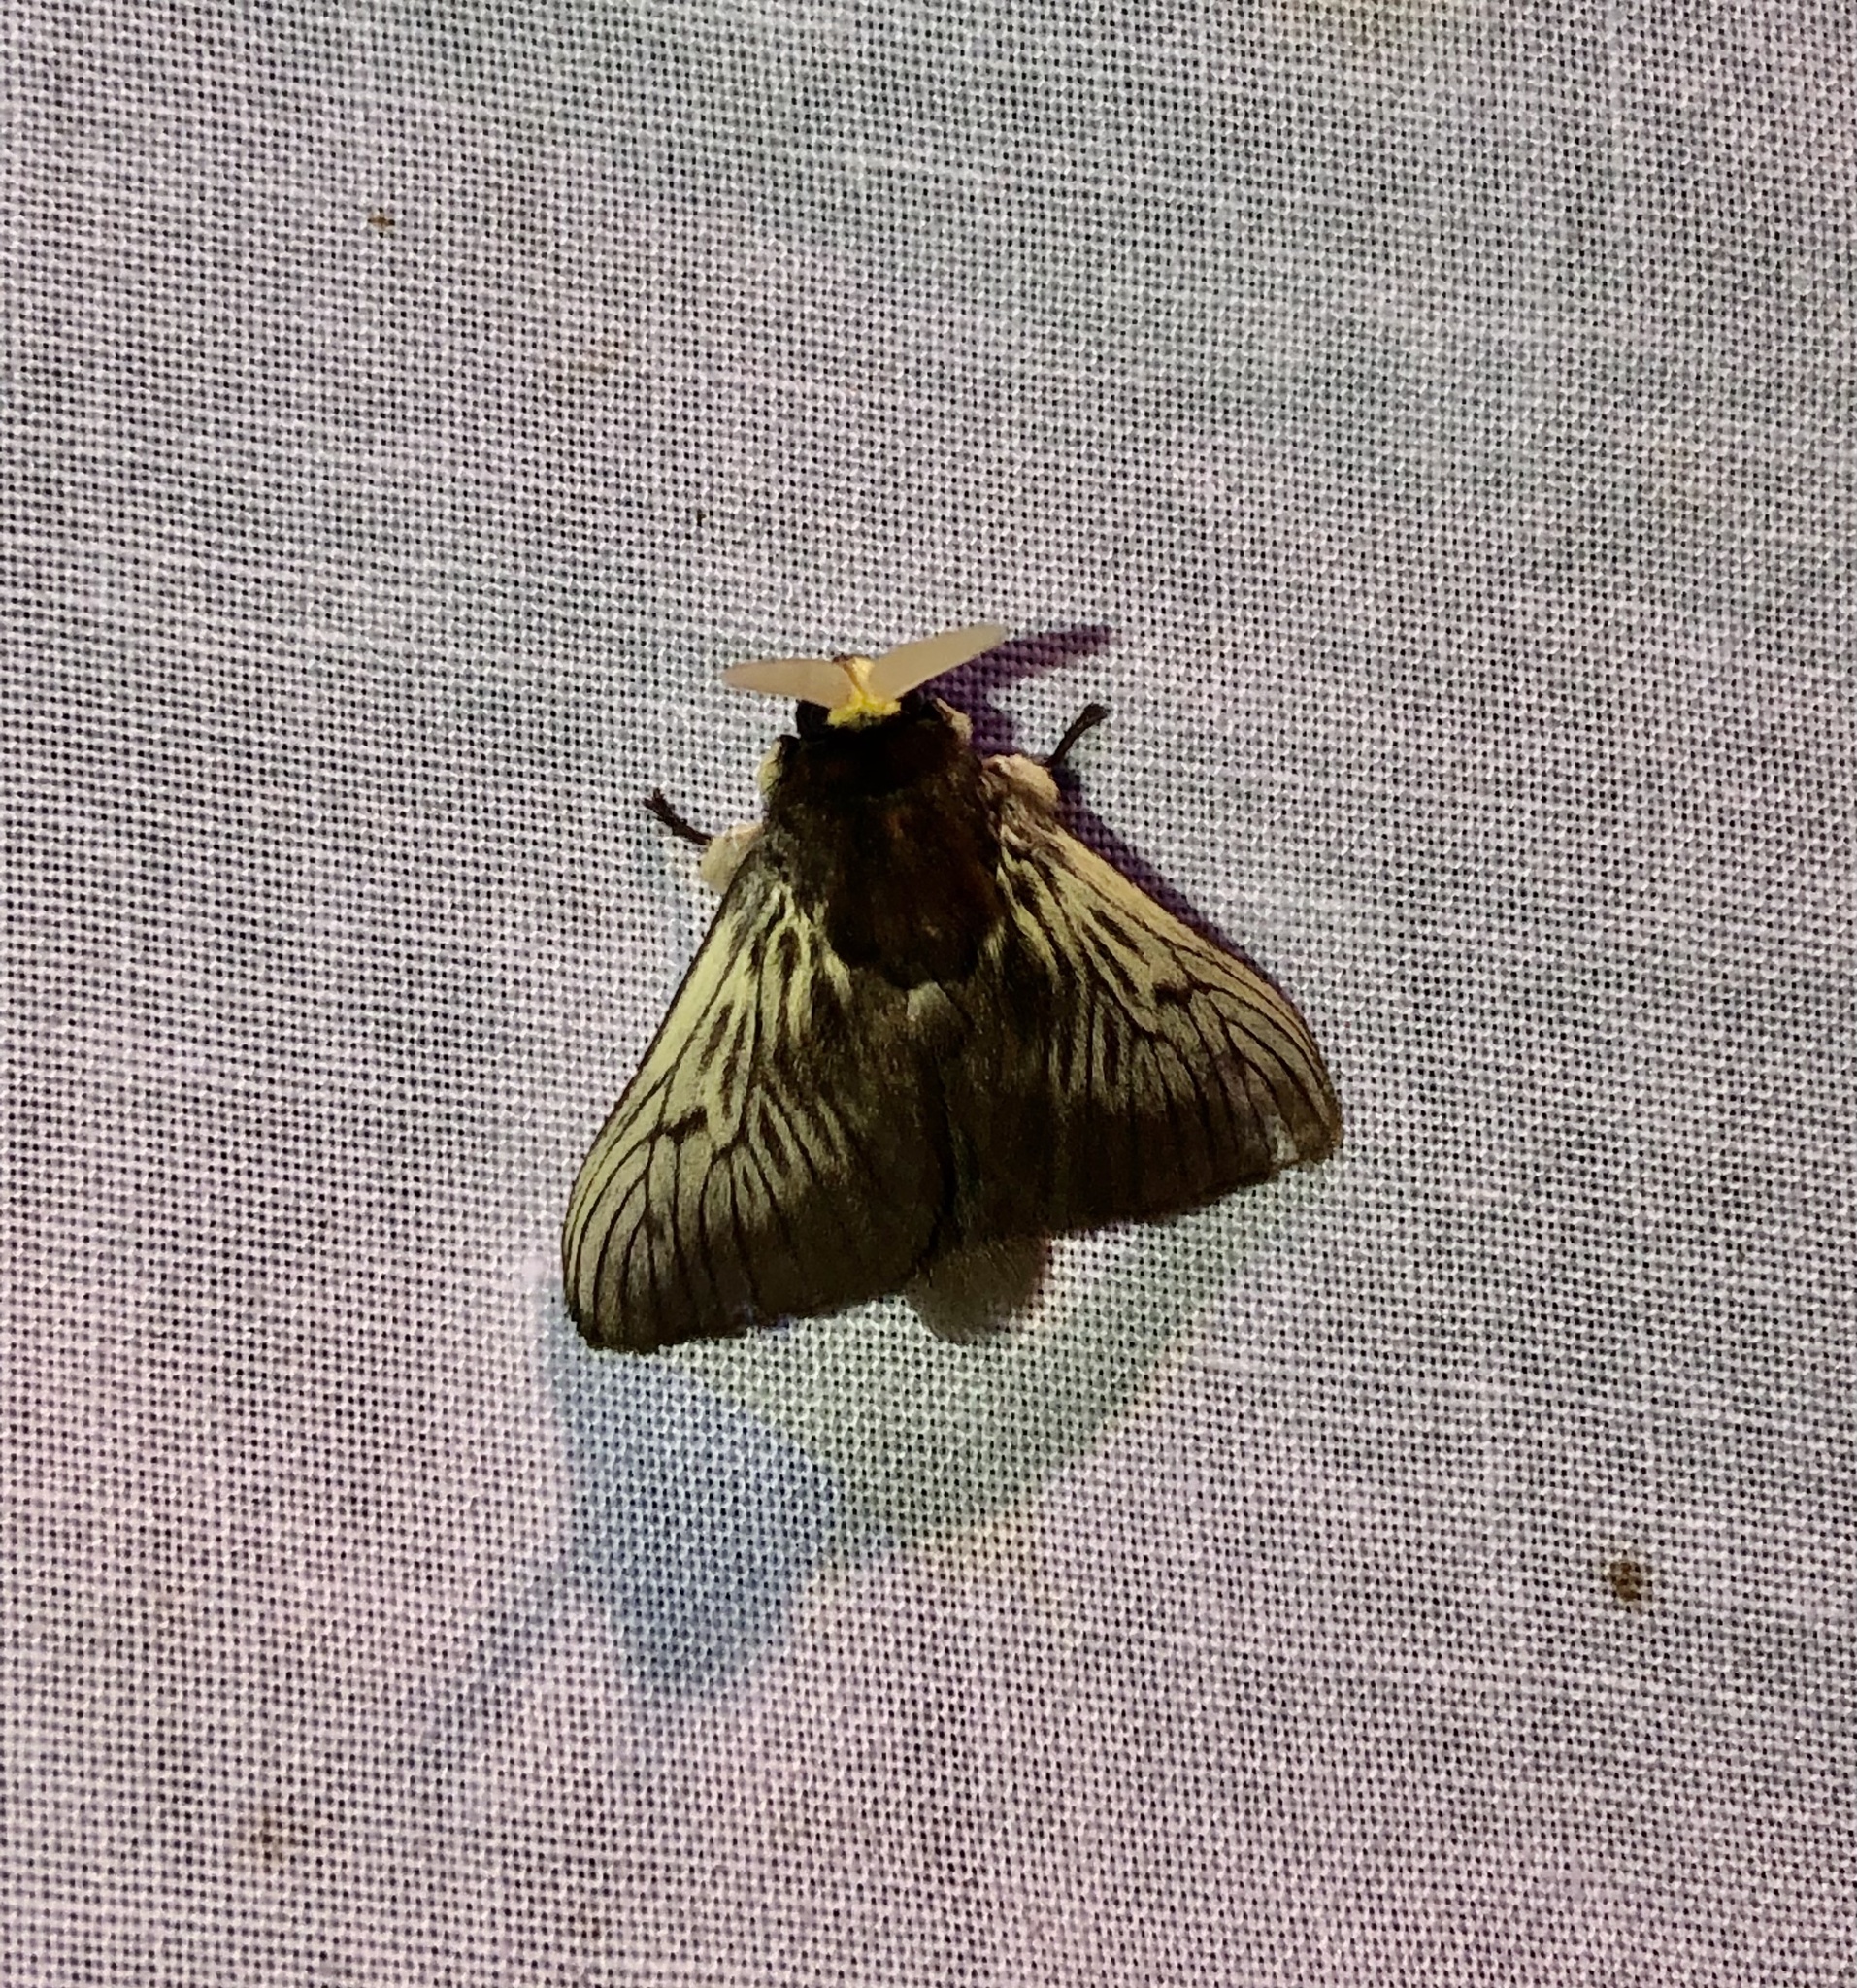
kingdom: Animalia
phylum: Arthropoda
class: Insecta
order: Lepidoptera
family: Megalopygidae
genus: Podalia
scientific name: Podalia tympania
